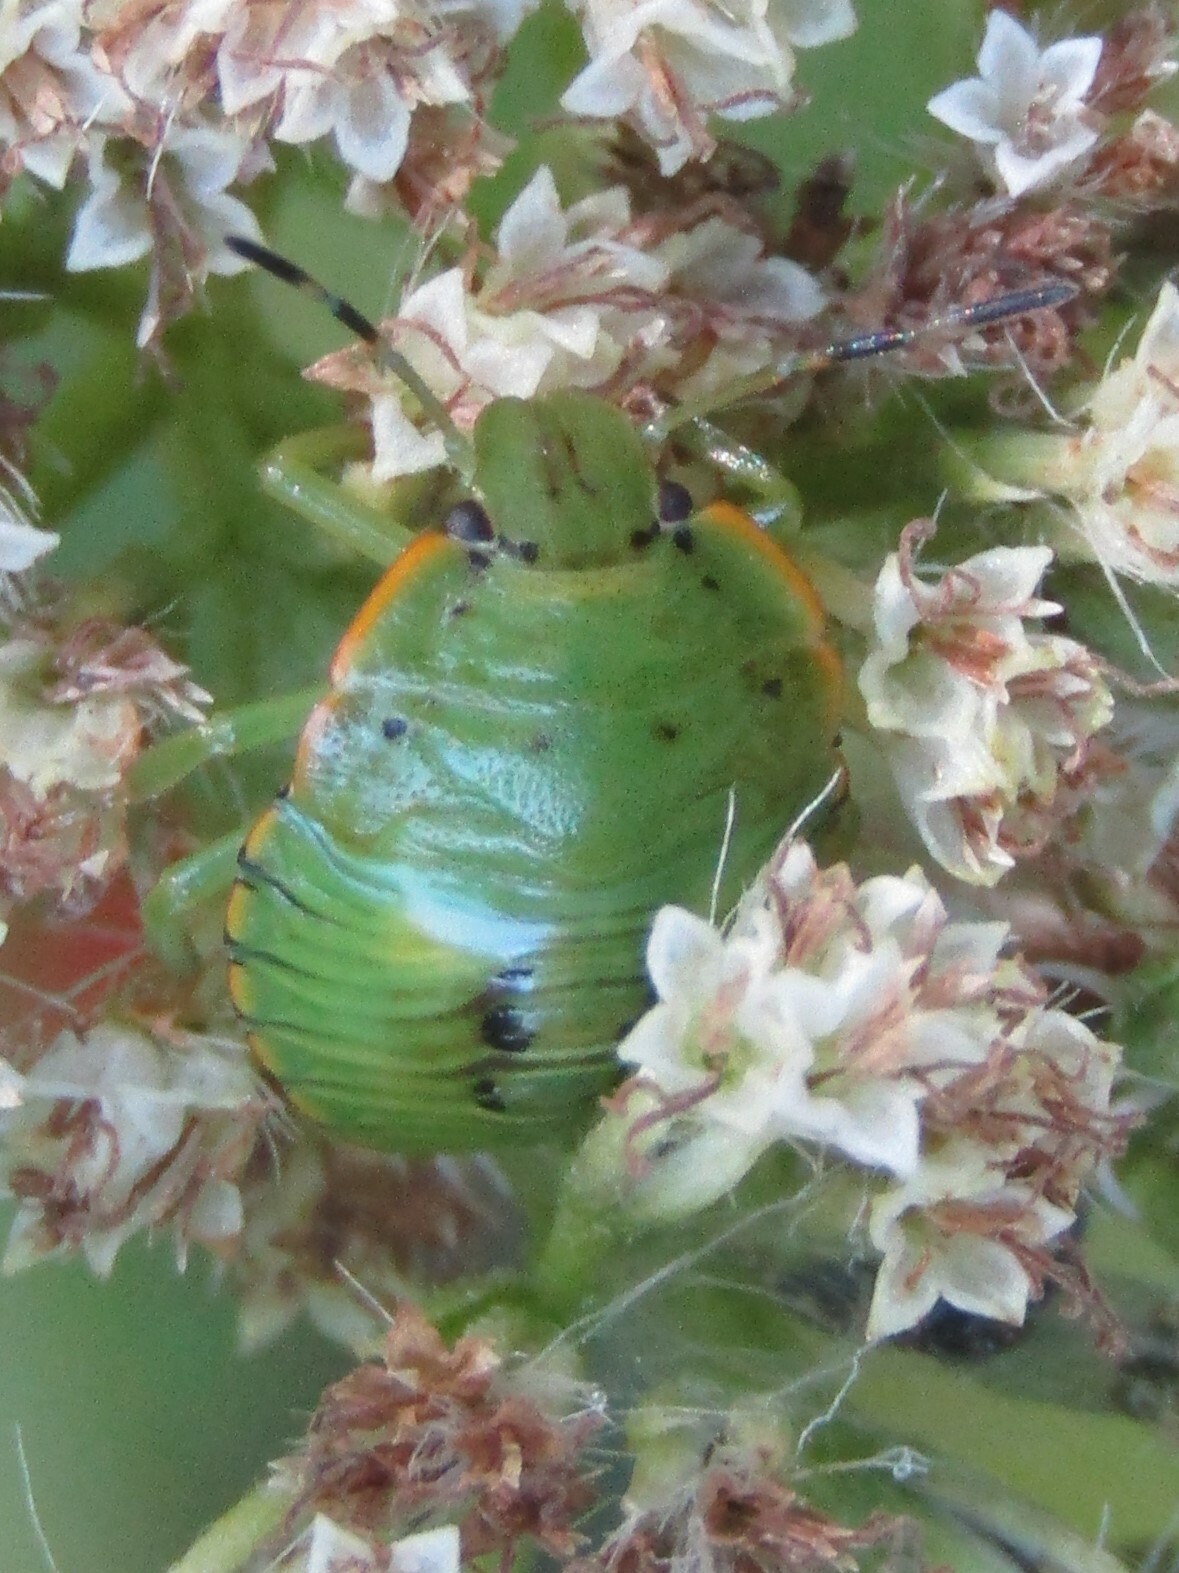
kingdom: Animalia
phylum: Arthropoda
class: Insecta
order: Hemiptera
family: Pentatomidae
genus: Chinavia
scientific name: Chinavia hilaris
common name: Green stink bug
